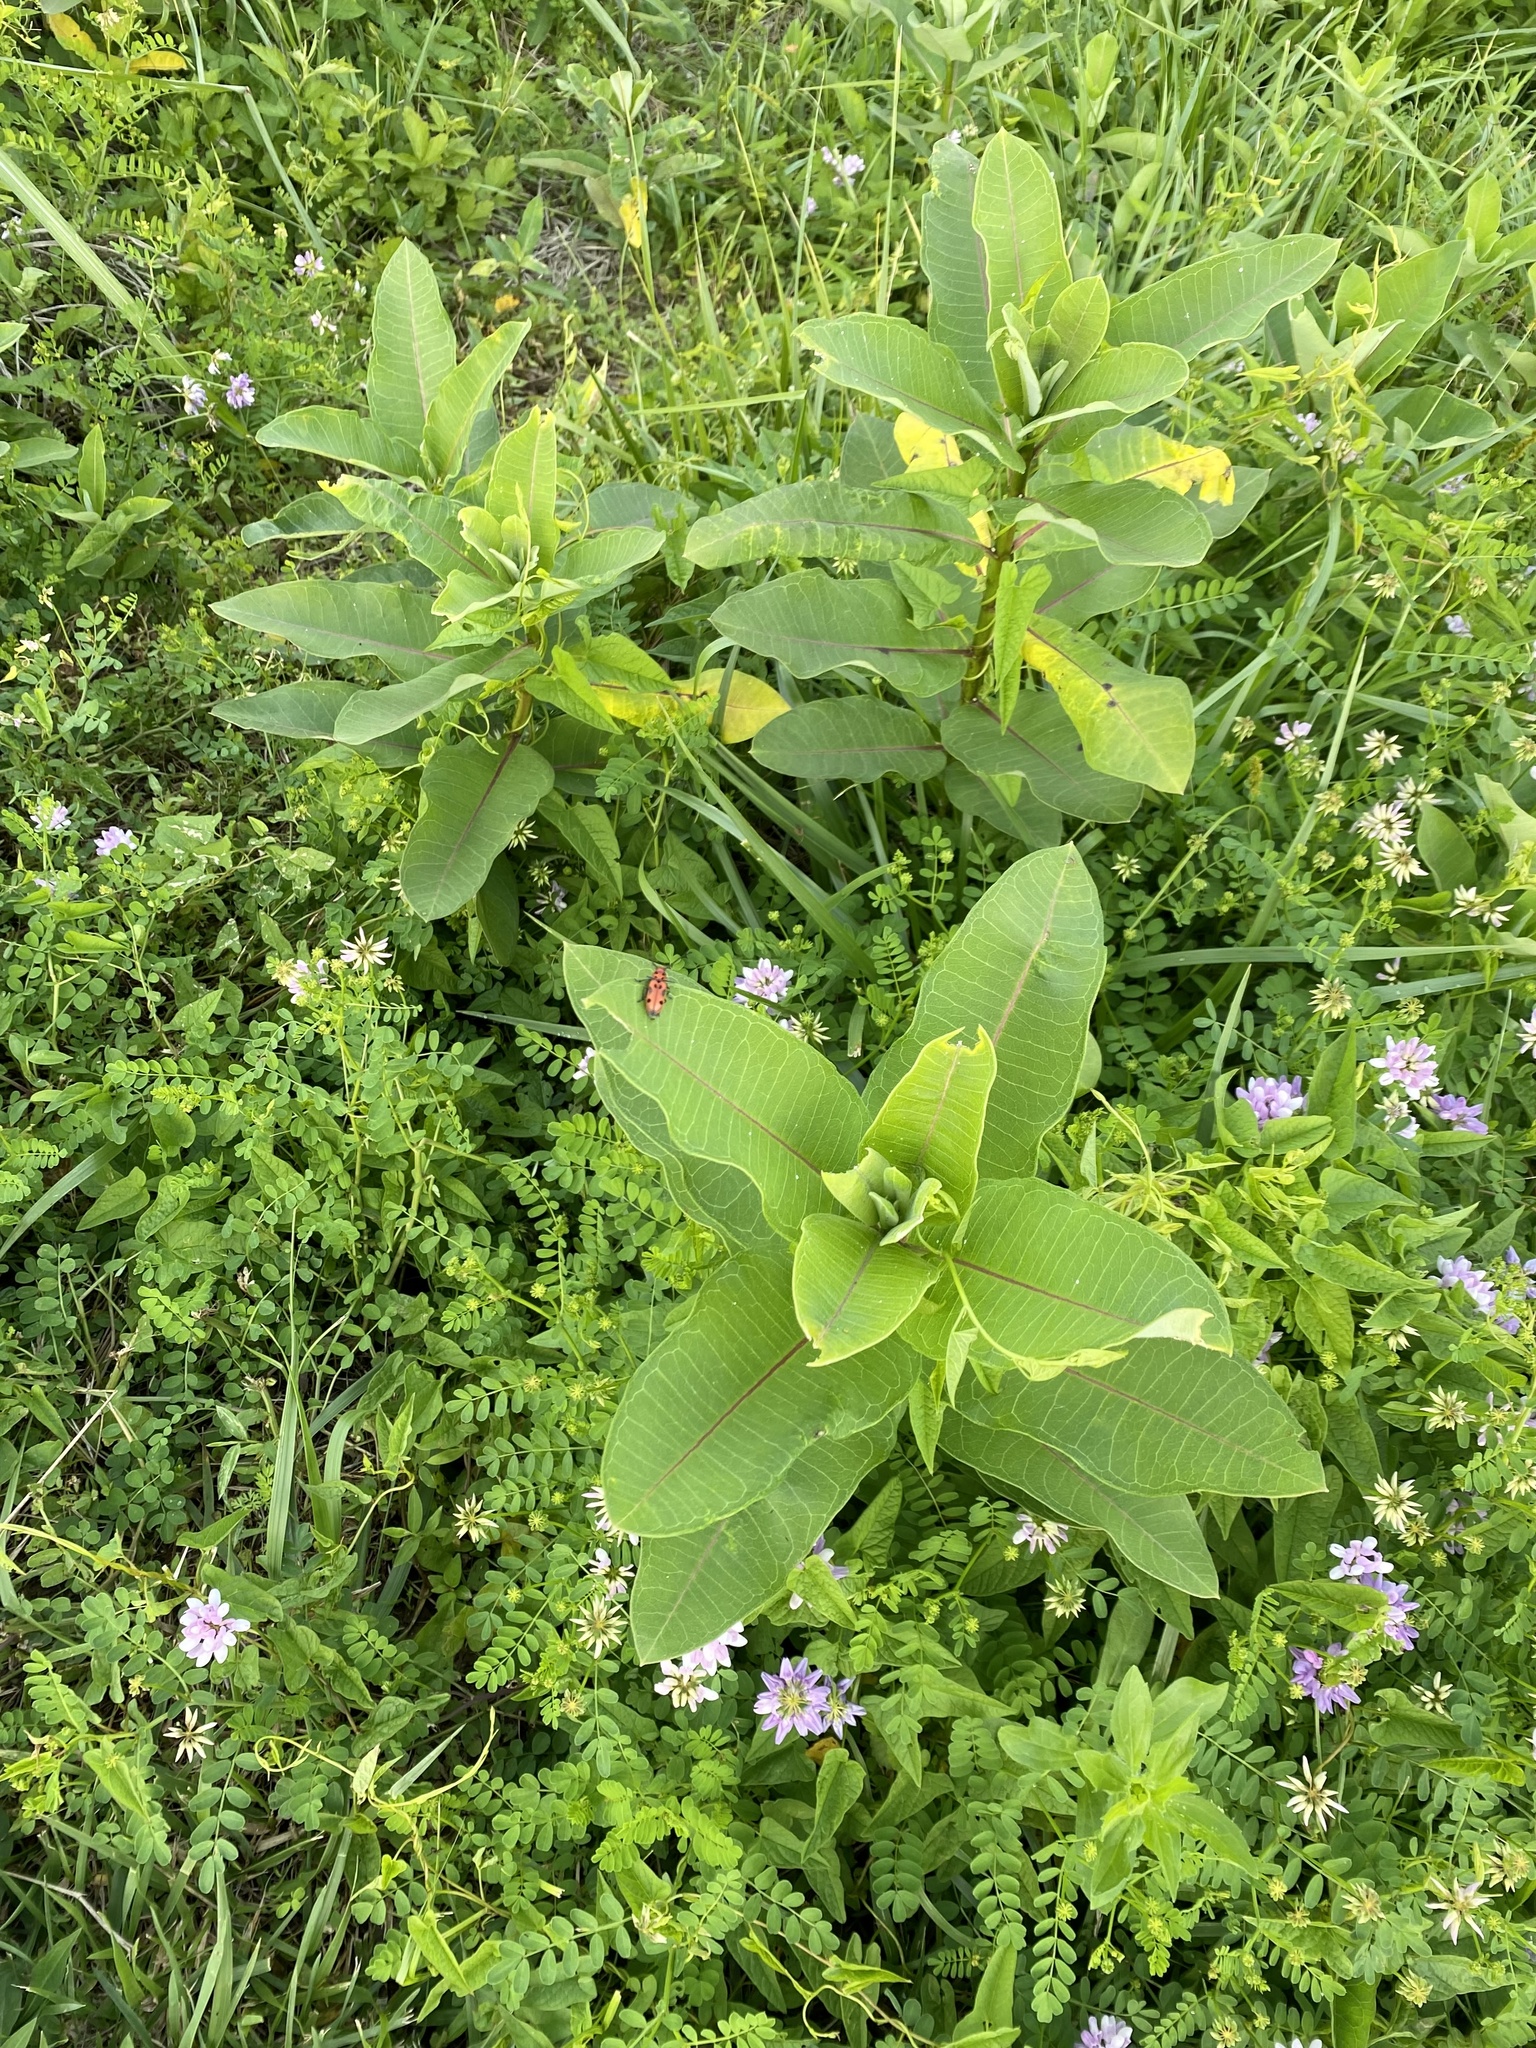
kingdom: Plantae
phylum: Tracheophyta
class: Magnoliopsida
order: Gentianales
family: Apocynaceae
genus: Asclepias
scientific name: Asclepias syriaca
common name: Common milkweed
